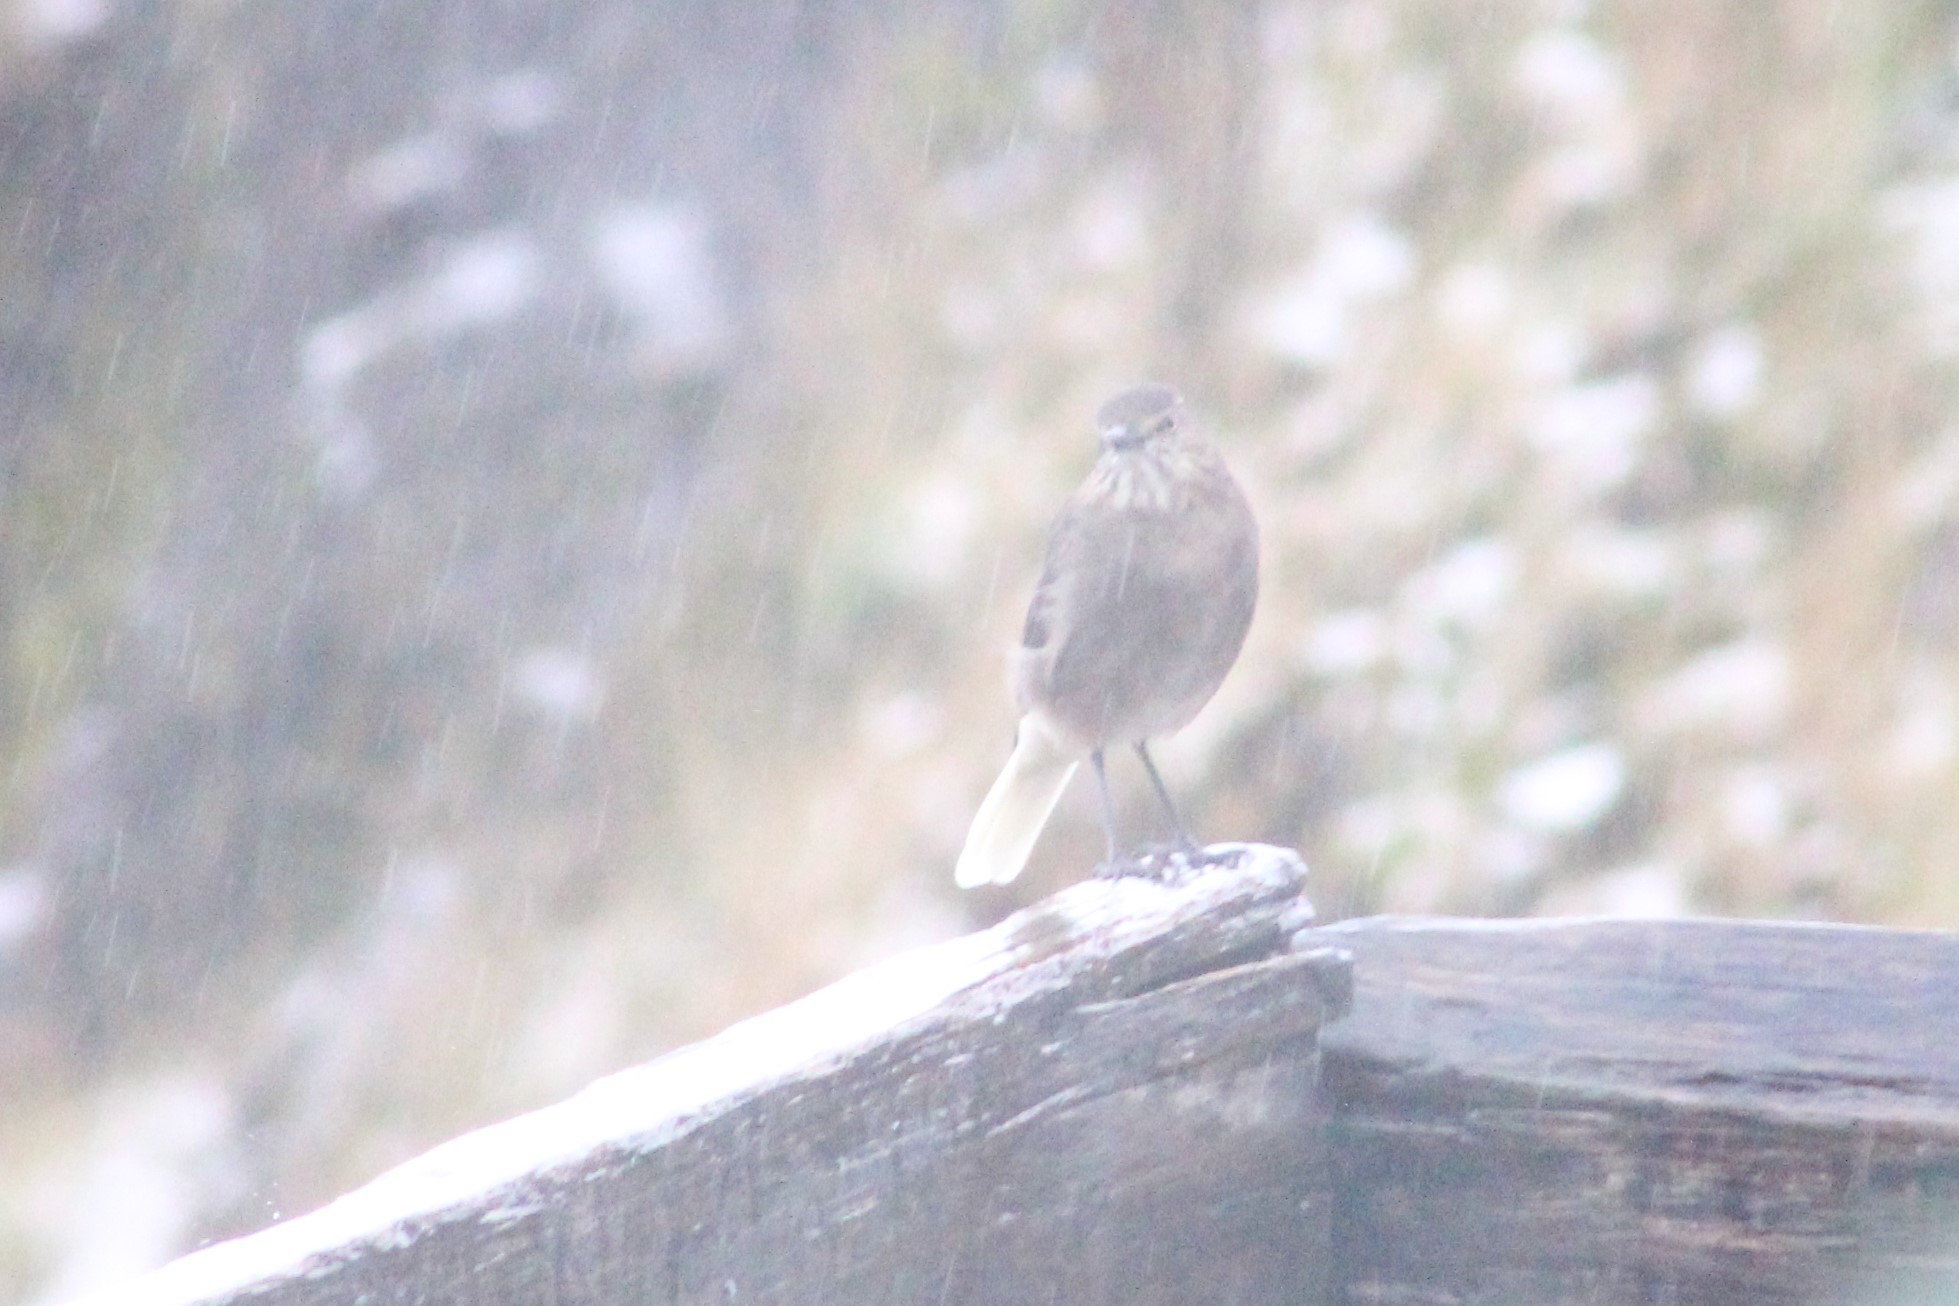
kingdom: Animalia
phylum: Chordata
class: Aves
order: Passeriformes
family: Tyrannidae
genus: Agriornis
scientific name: Agriornis montanus
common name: Black-billed shrike-tyrant
